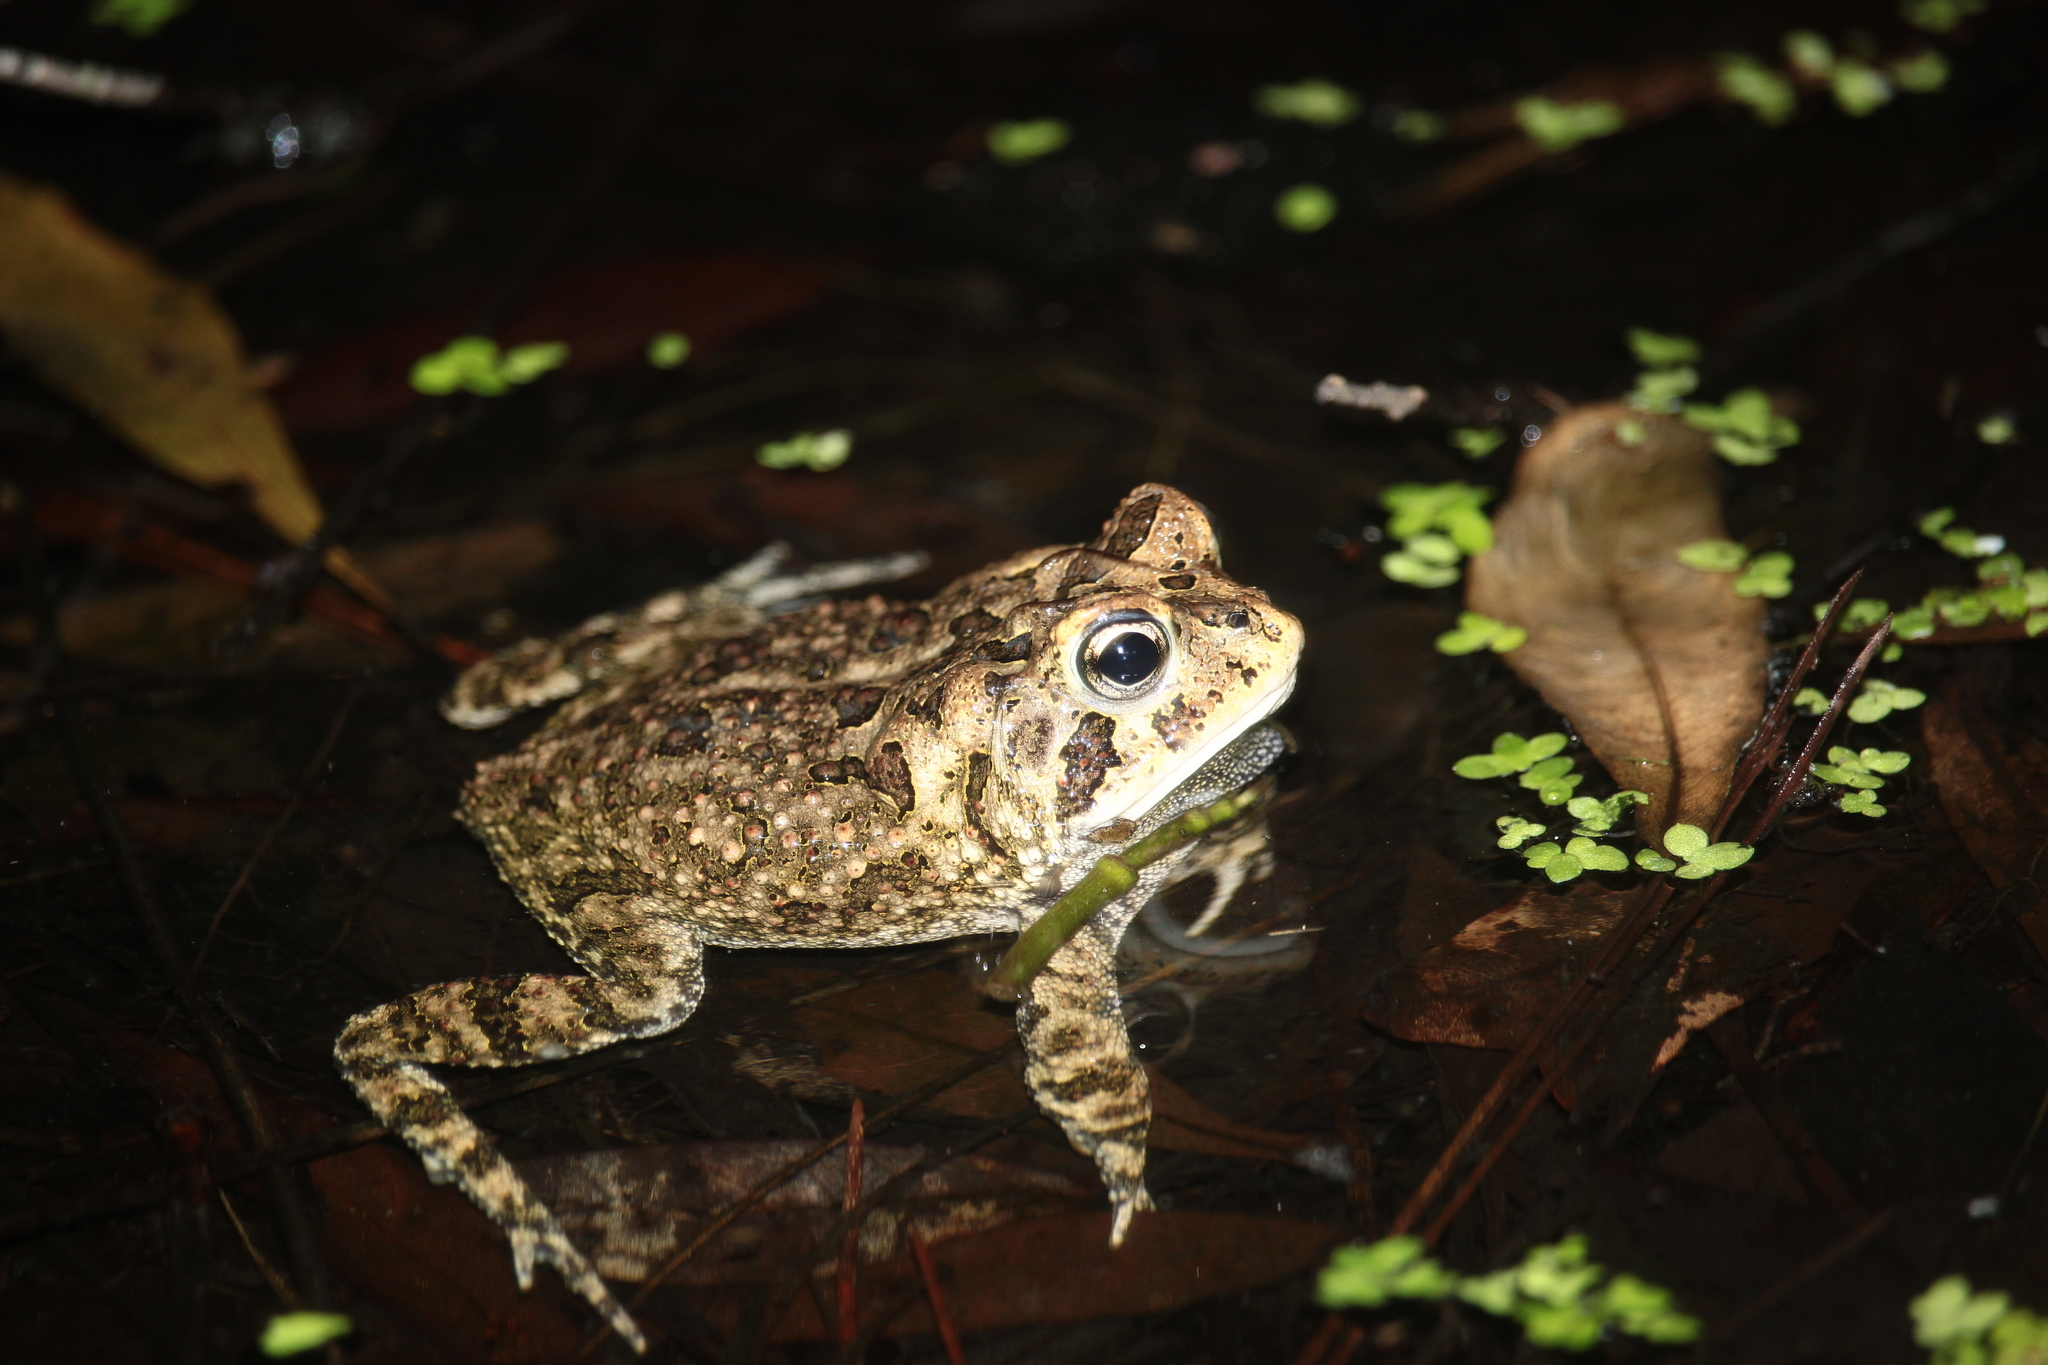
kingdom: Animalia
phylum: Chordata
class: Amphibia
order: Anura
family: Bufonidae
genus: Anaxyrus
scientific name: Anaxyrus terrestris
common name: Southern toad
